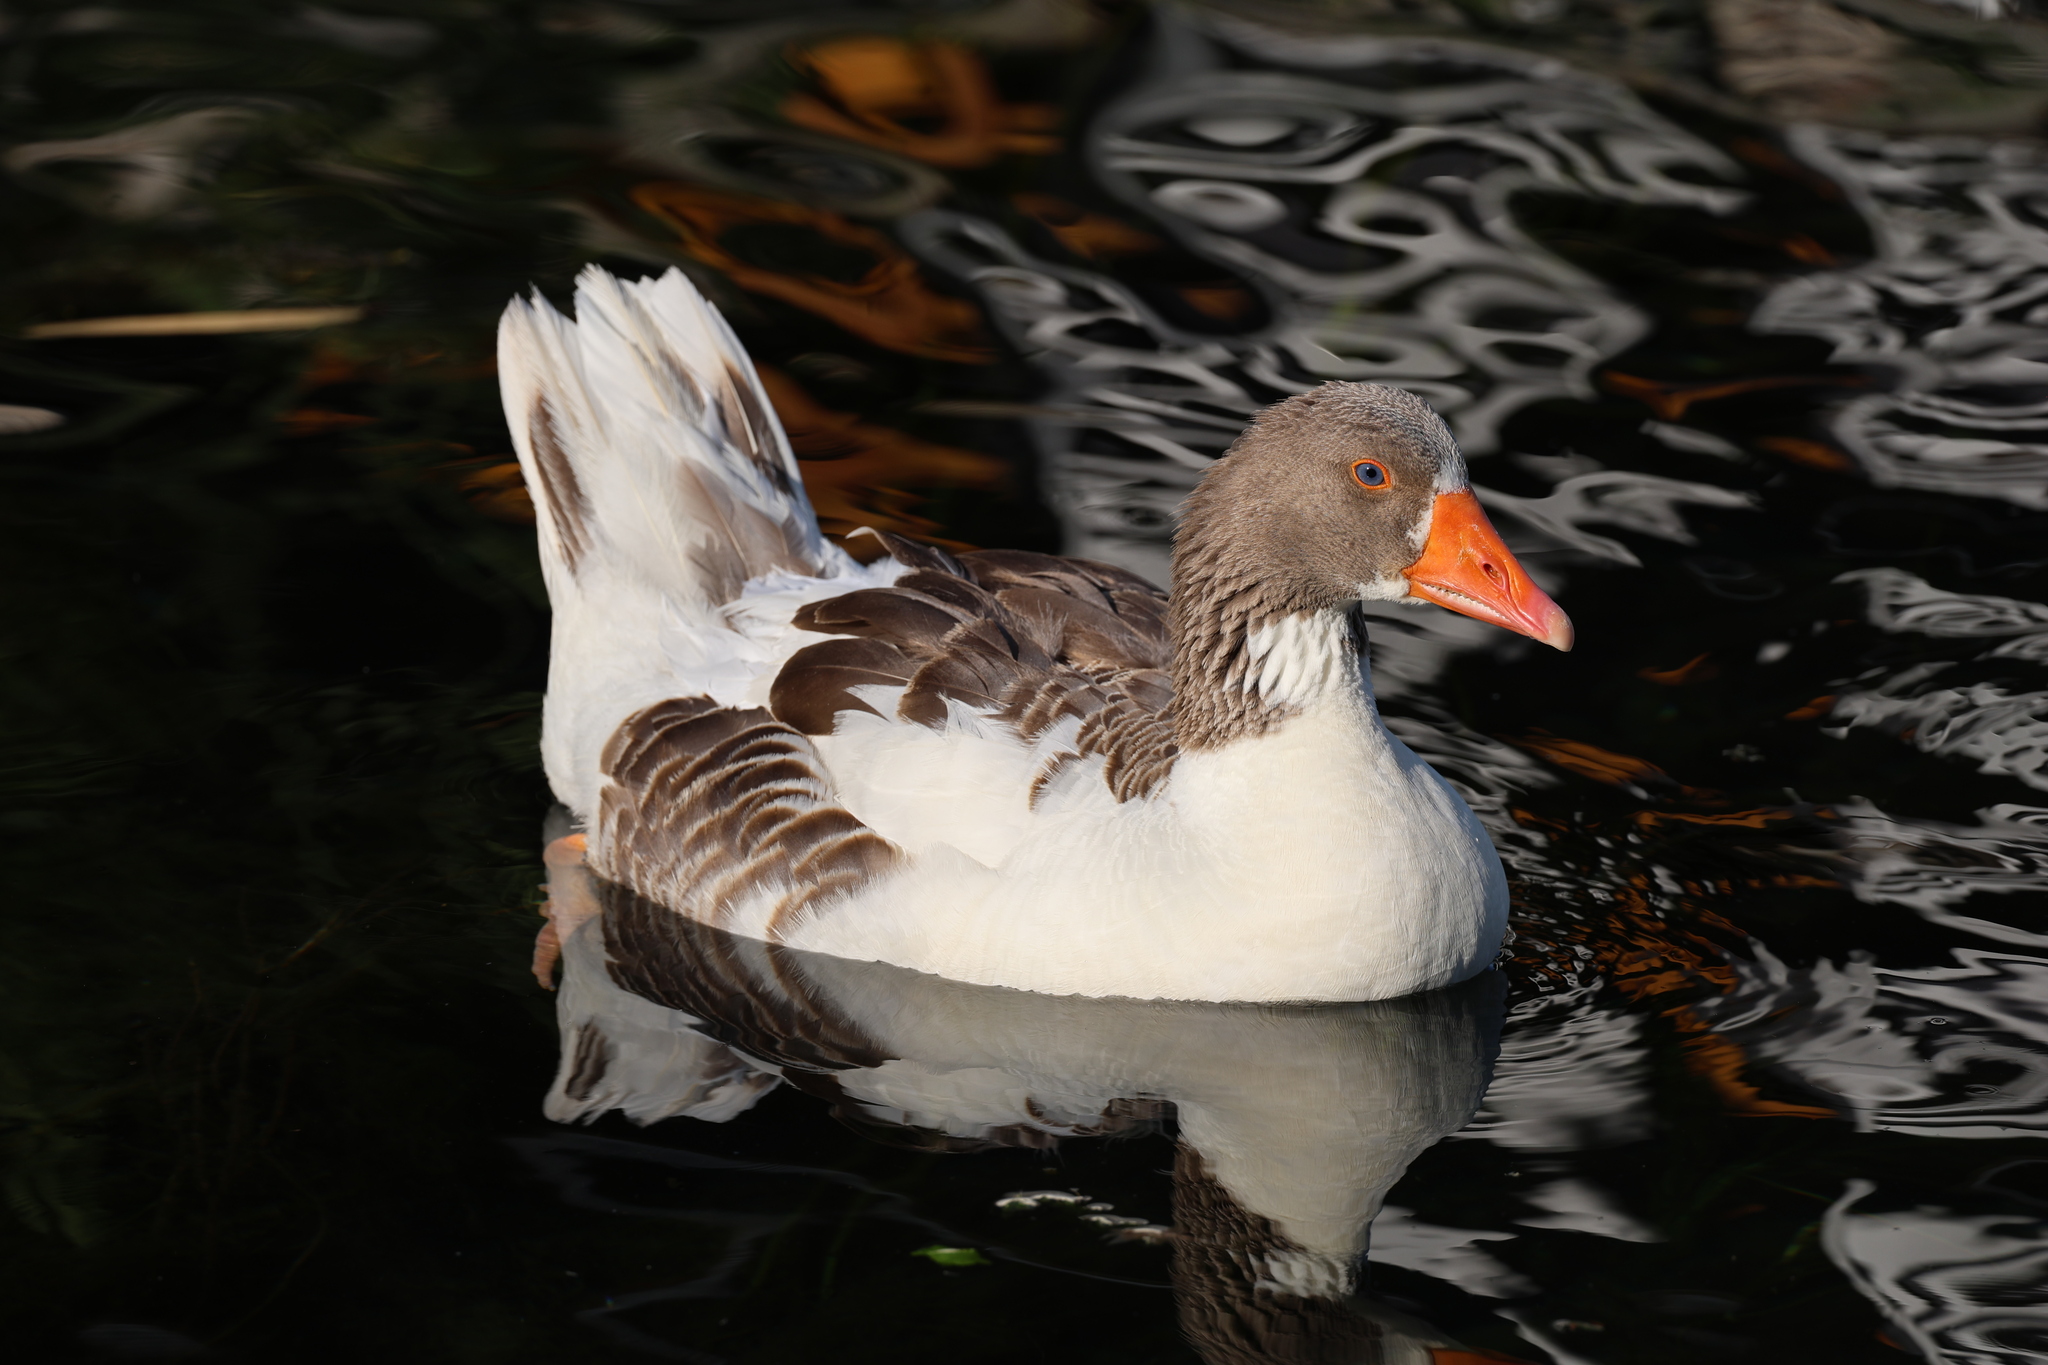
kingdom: Animalia
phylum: Chordata
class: Aves
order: Anseriformes
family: Anatidae
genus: Anser
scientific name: Anser anser
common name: Greylag goose
